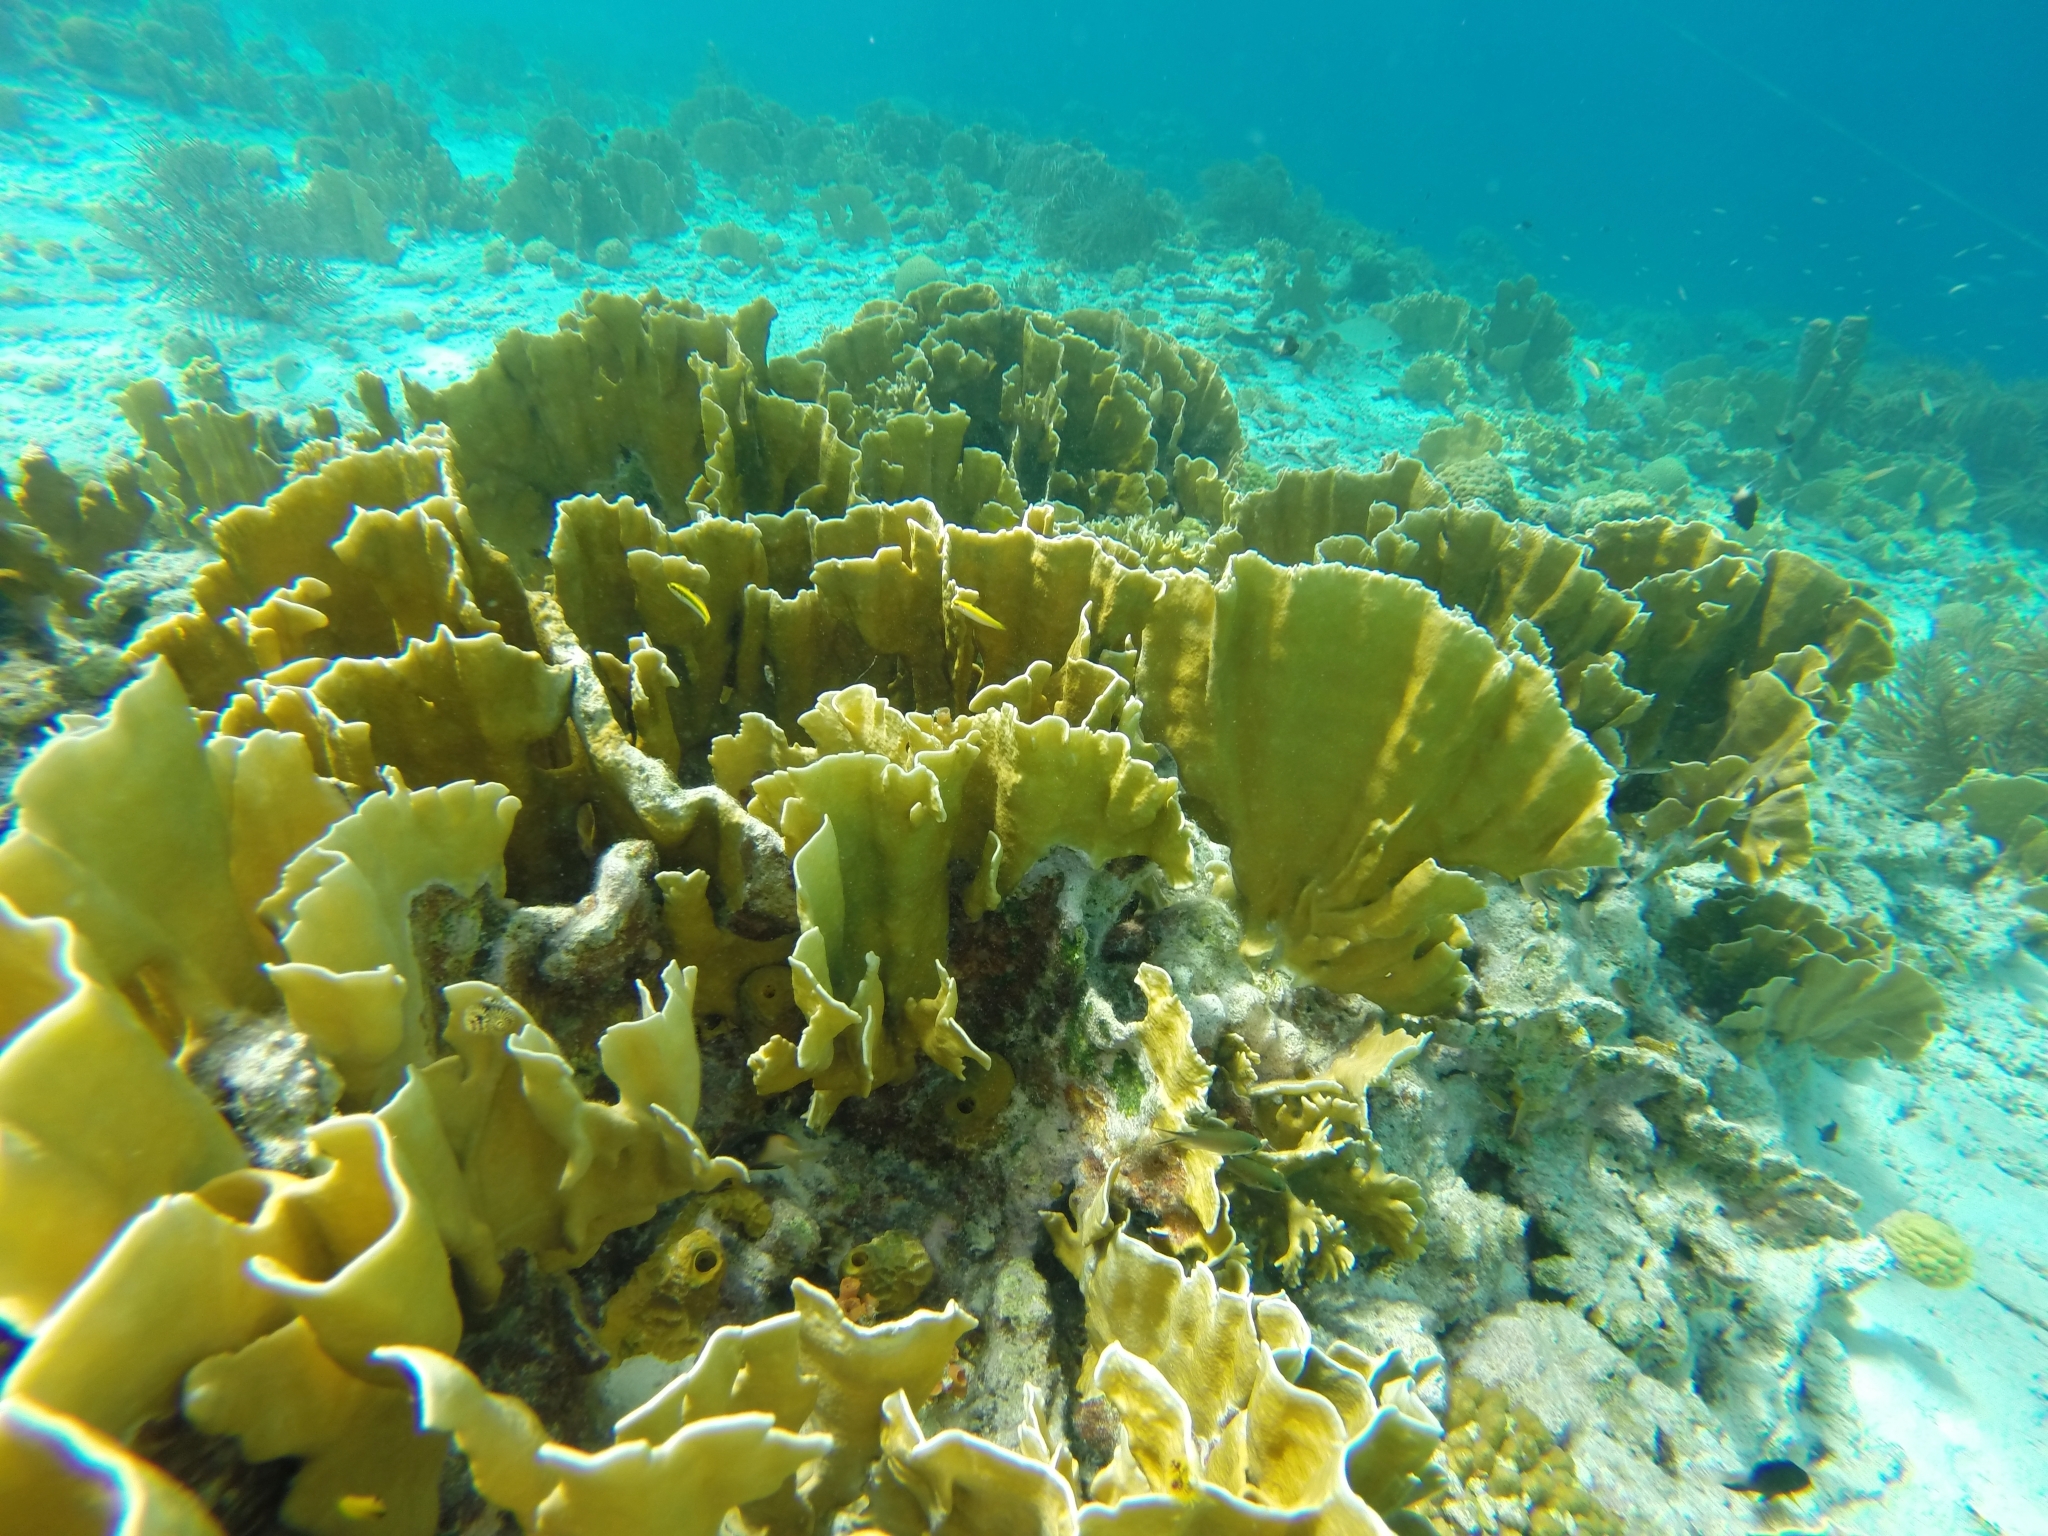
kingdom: Animalia
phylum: Cnidaria
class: Hydrozoa
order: Anthoathecata
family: Milleporidae
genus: Millepora
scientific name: Millepora complanata
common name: Bladed fire coral
